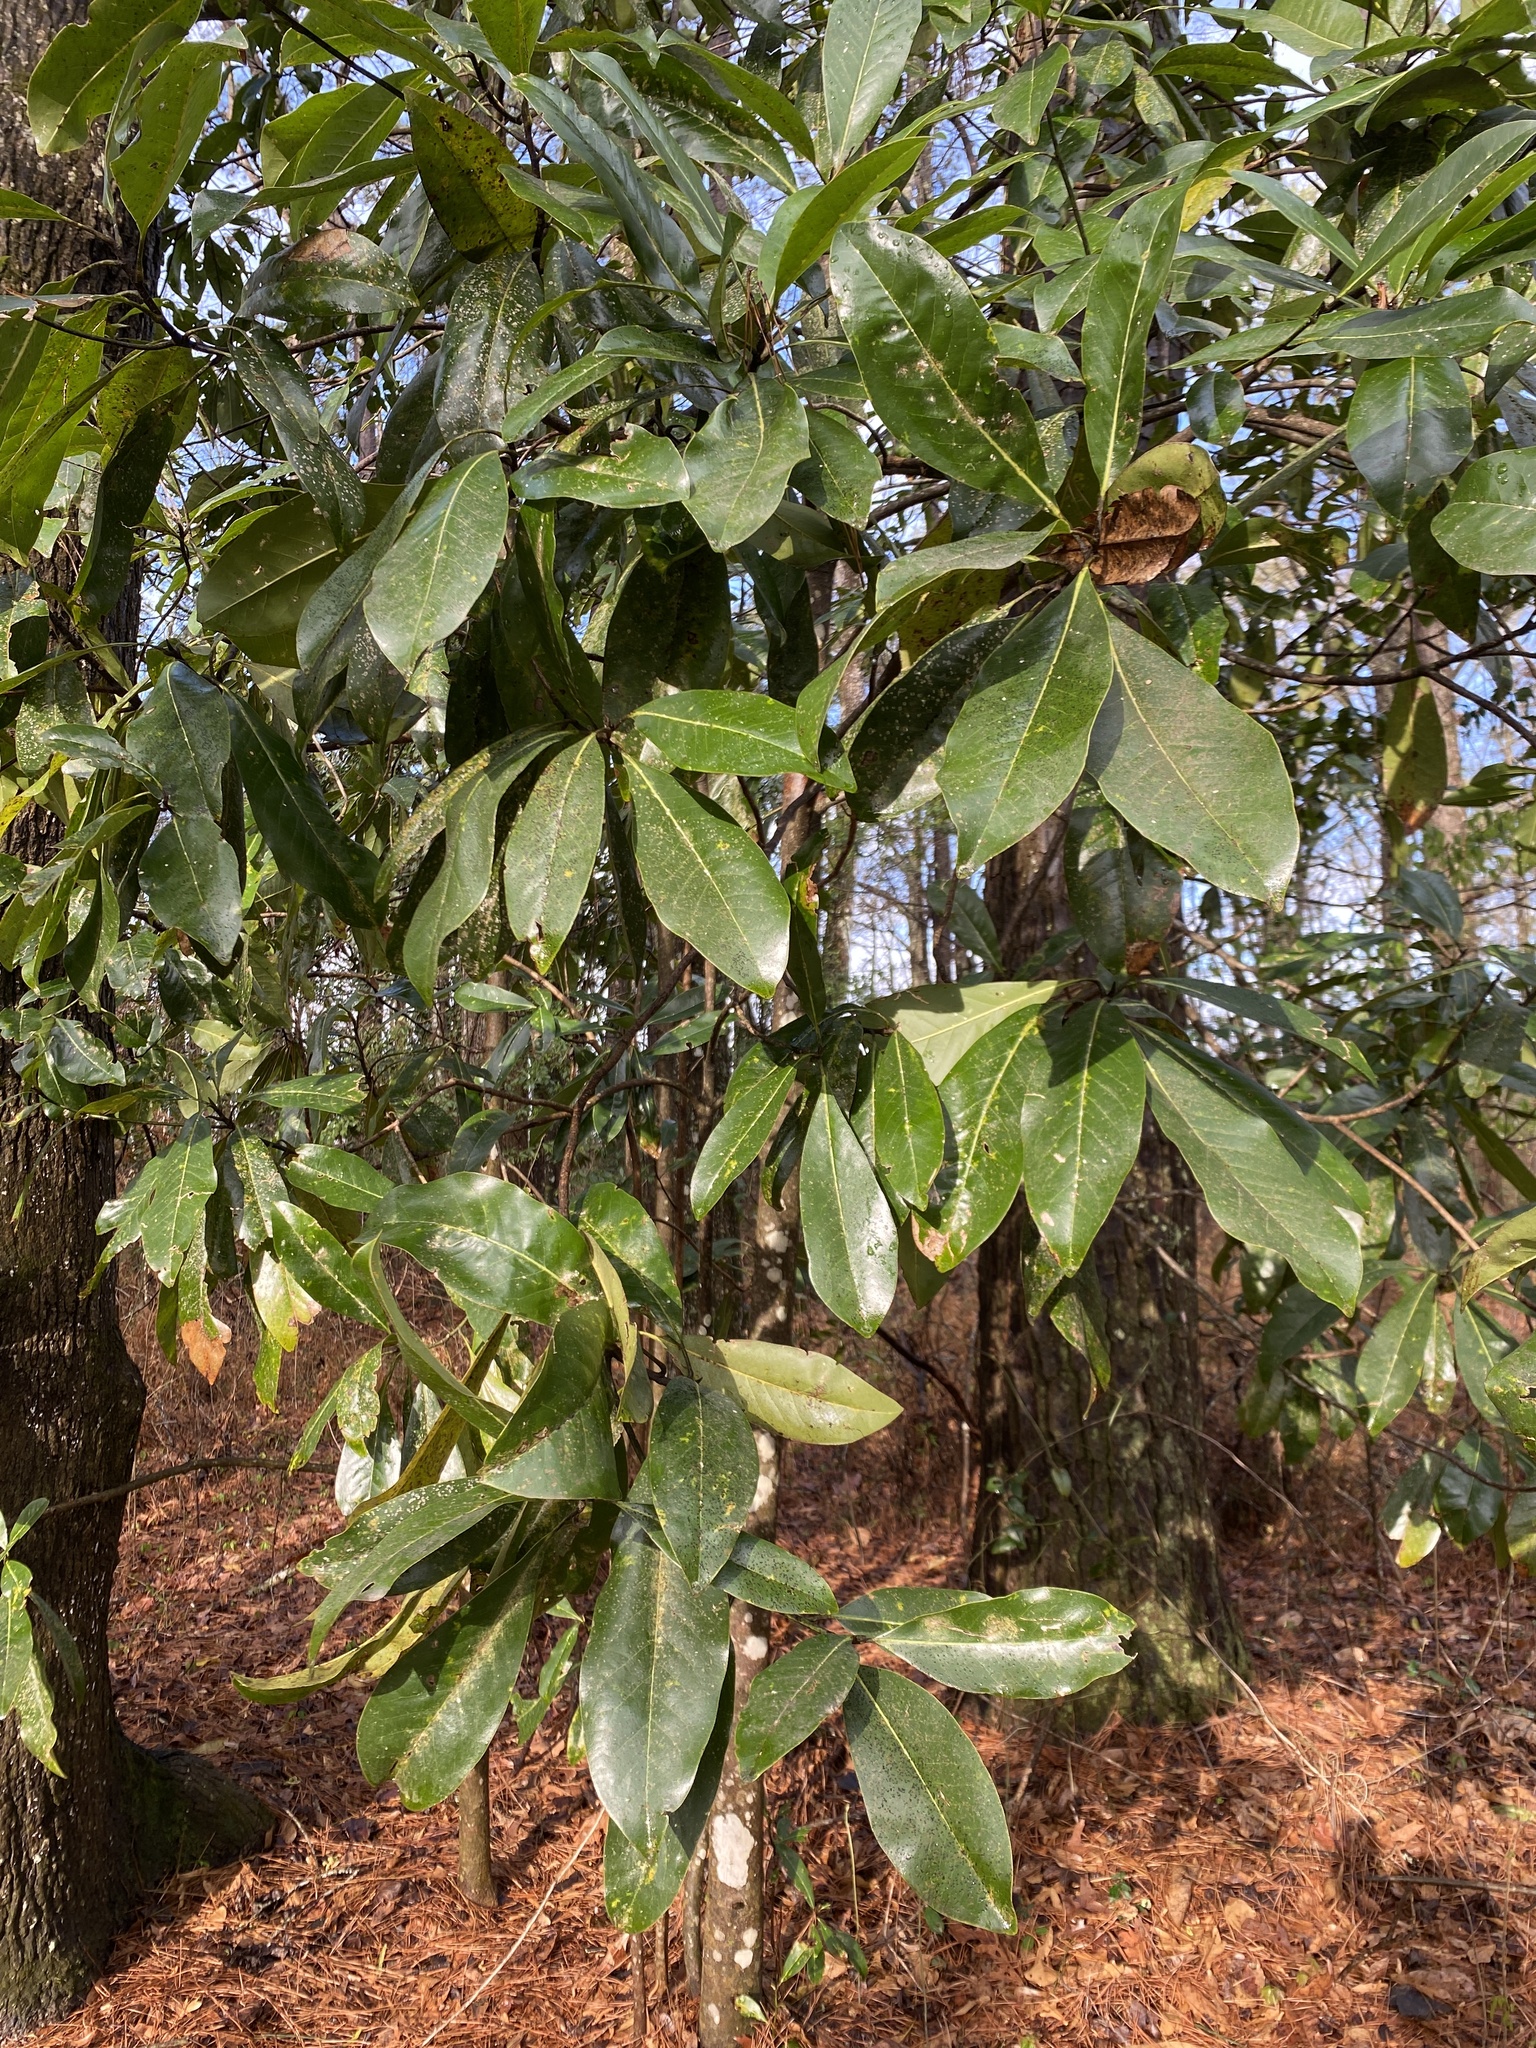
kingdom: Plantae
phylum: Tracheophyta
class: Magnoliopsida
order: Magnoliales
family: Magnoliaceae
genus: Magnolia
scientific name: Magnolia grandiflora
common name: Southern magnolia
